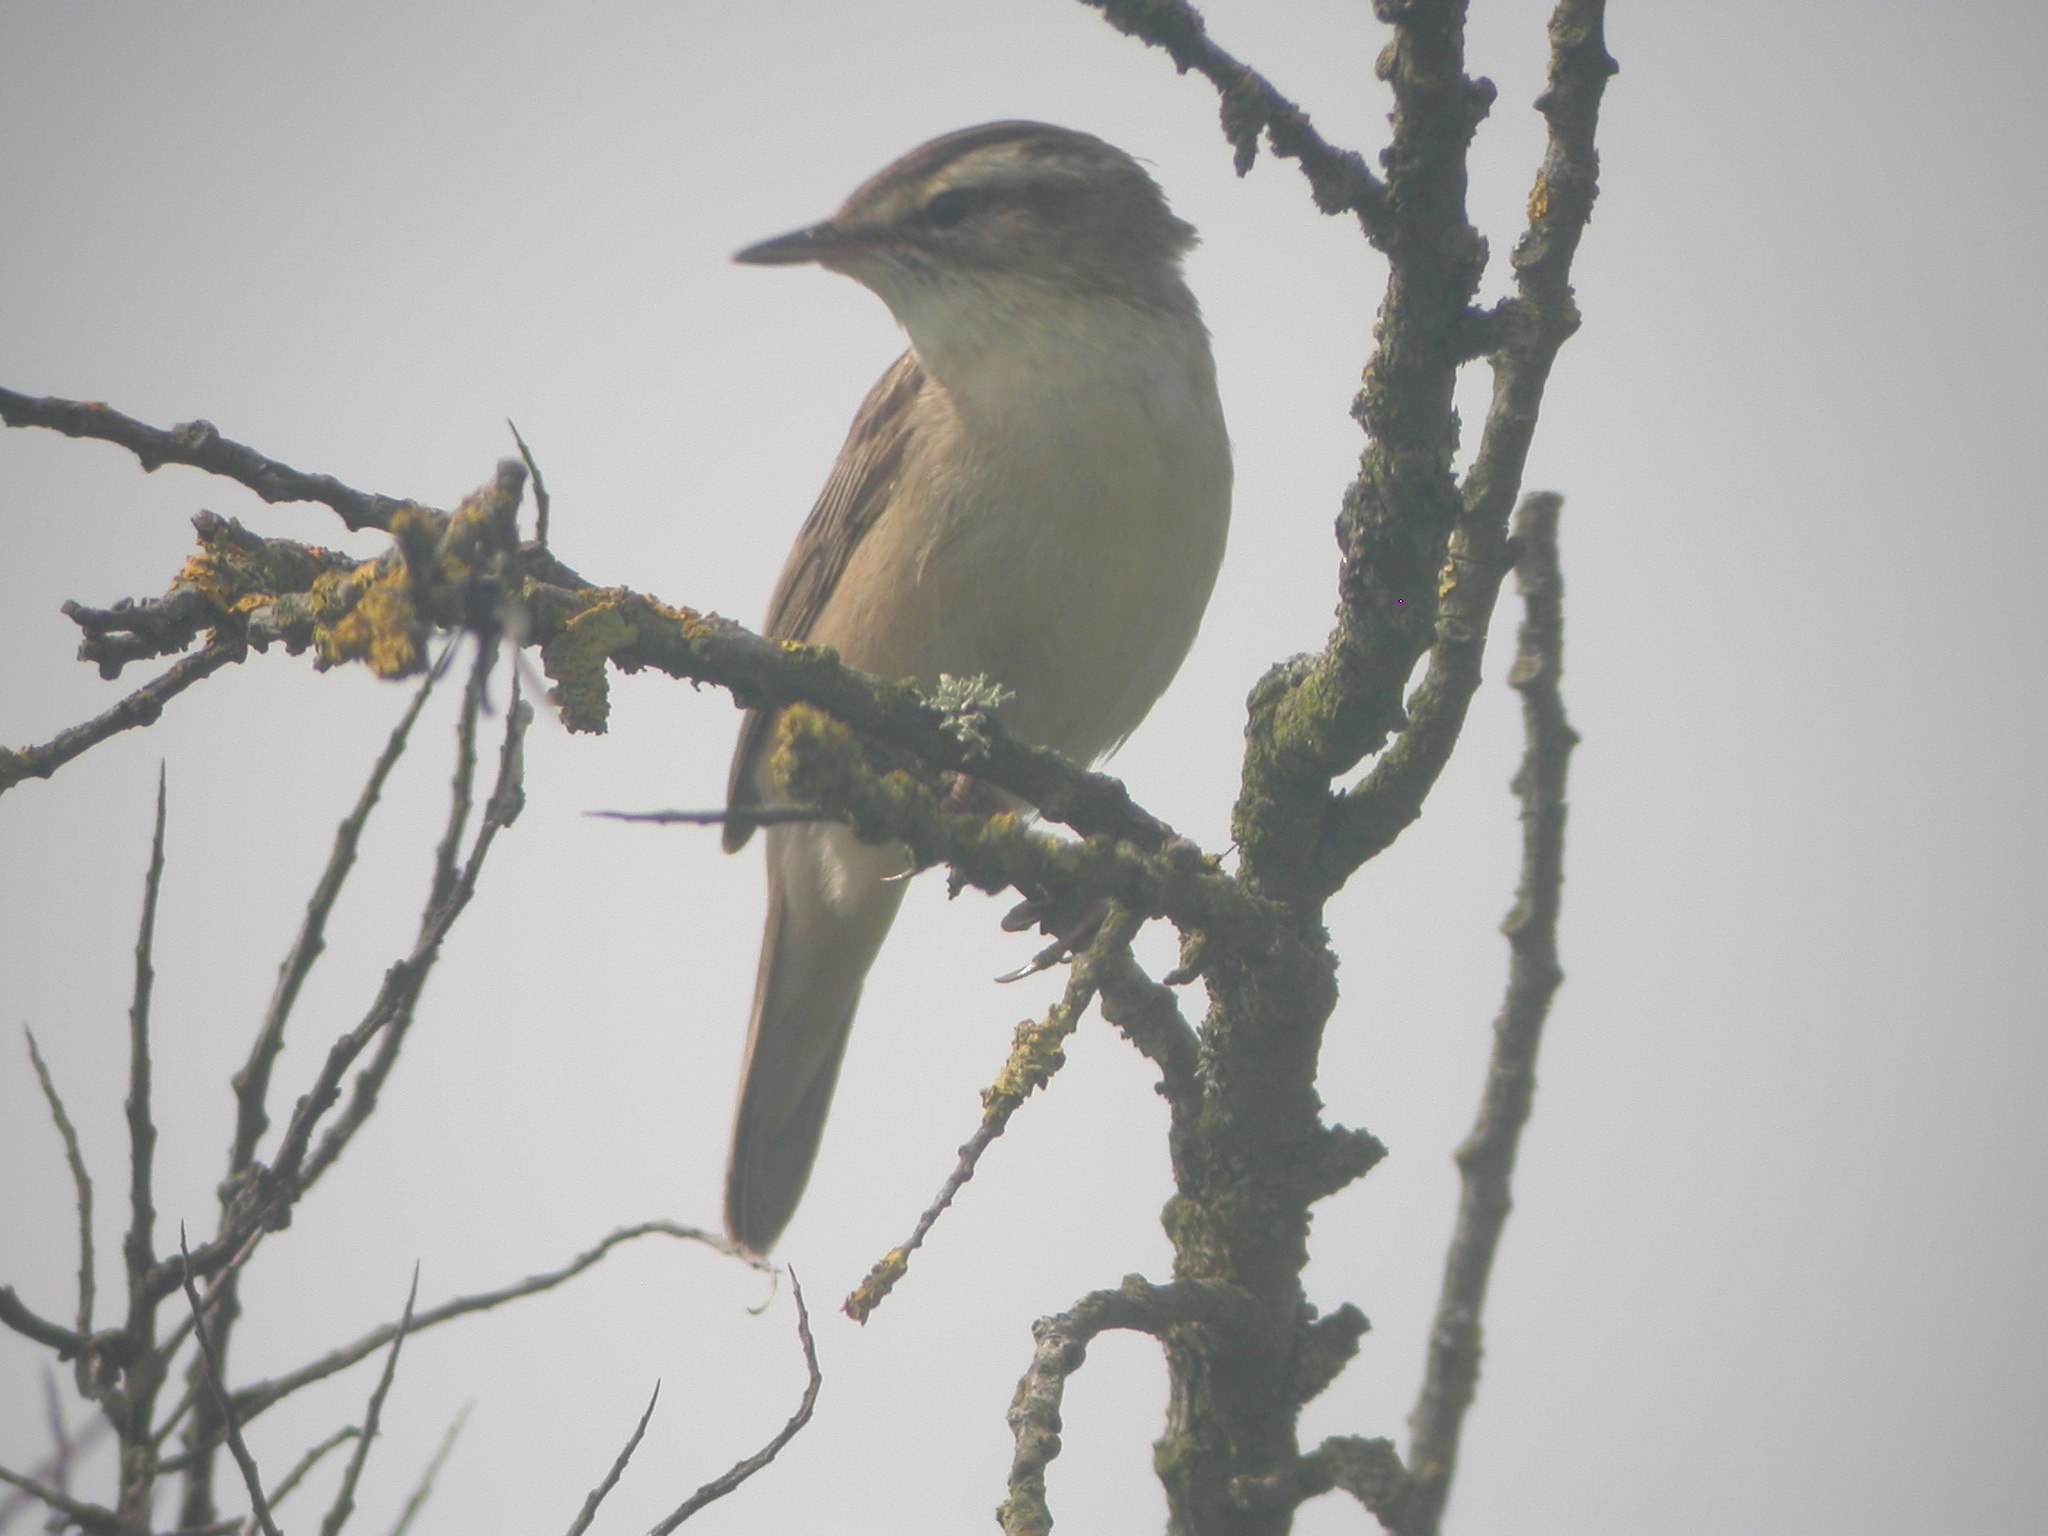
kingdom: Animalia
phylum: Chordata
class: Aves
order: Passeriformes
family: Acrocephalidae
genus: Acrocephalus
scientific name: Acrocephalus schoenobaenus
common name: Sedge warbler
